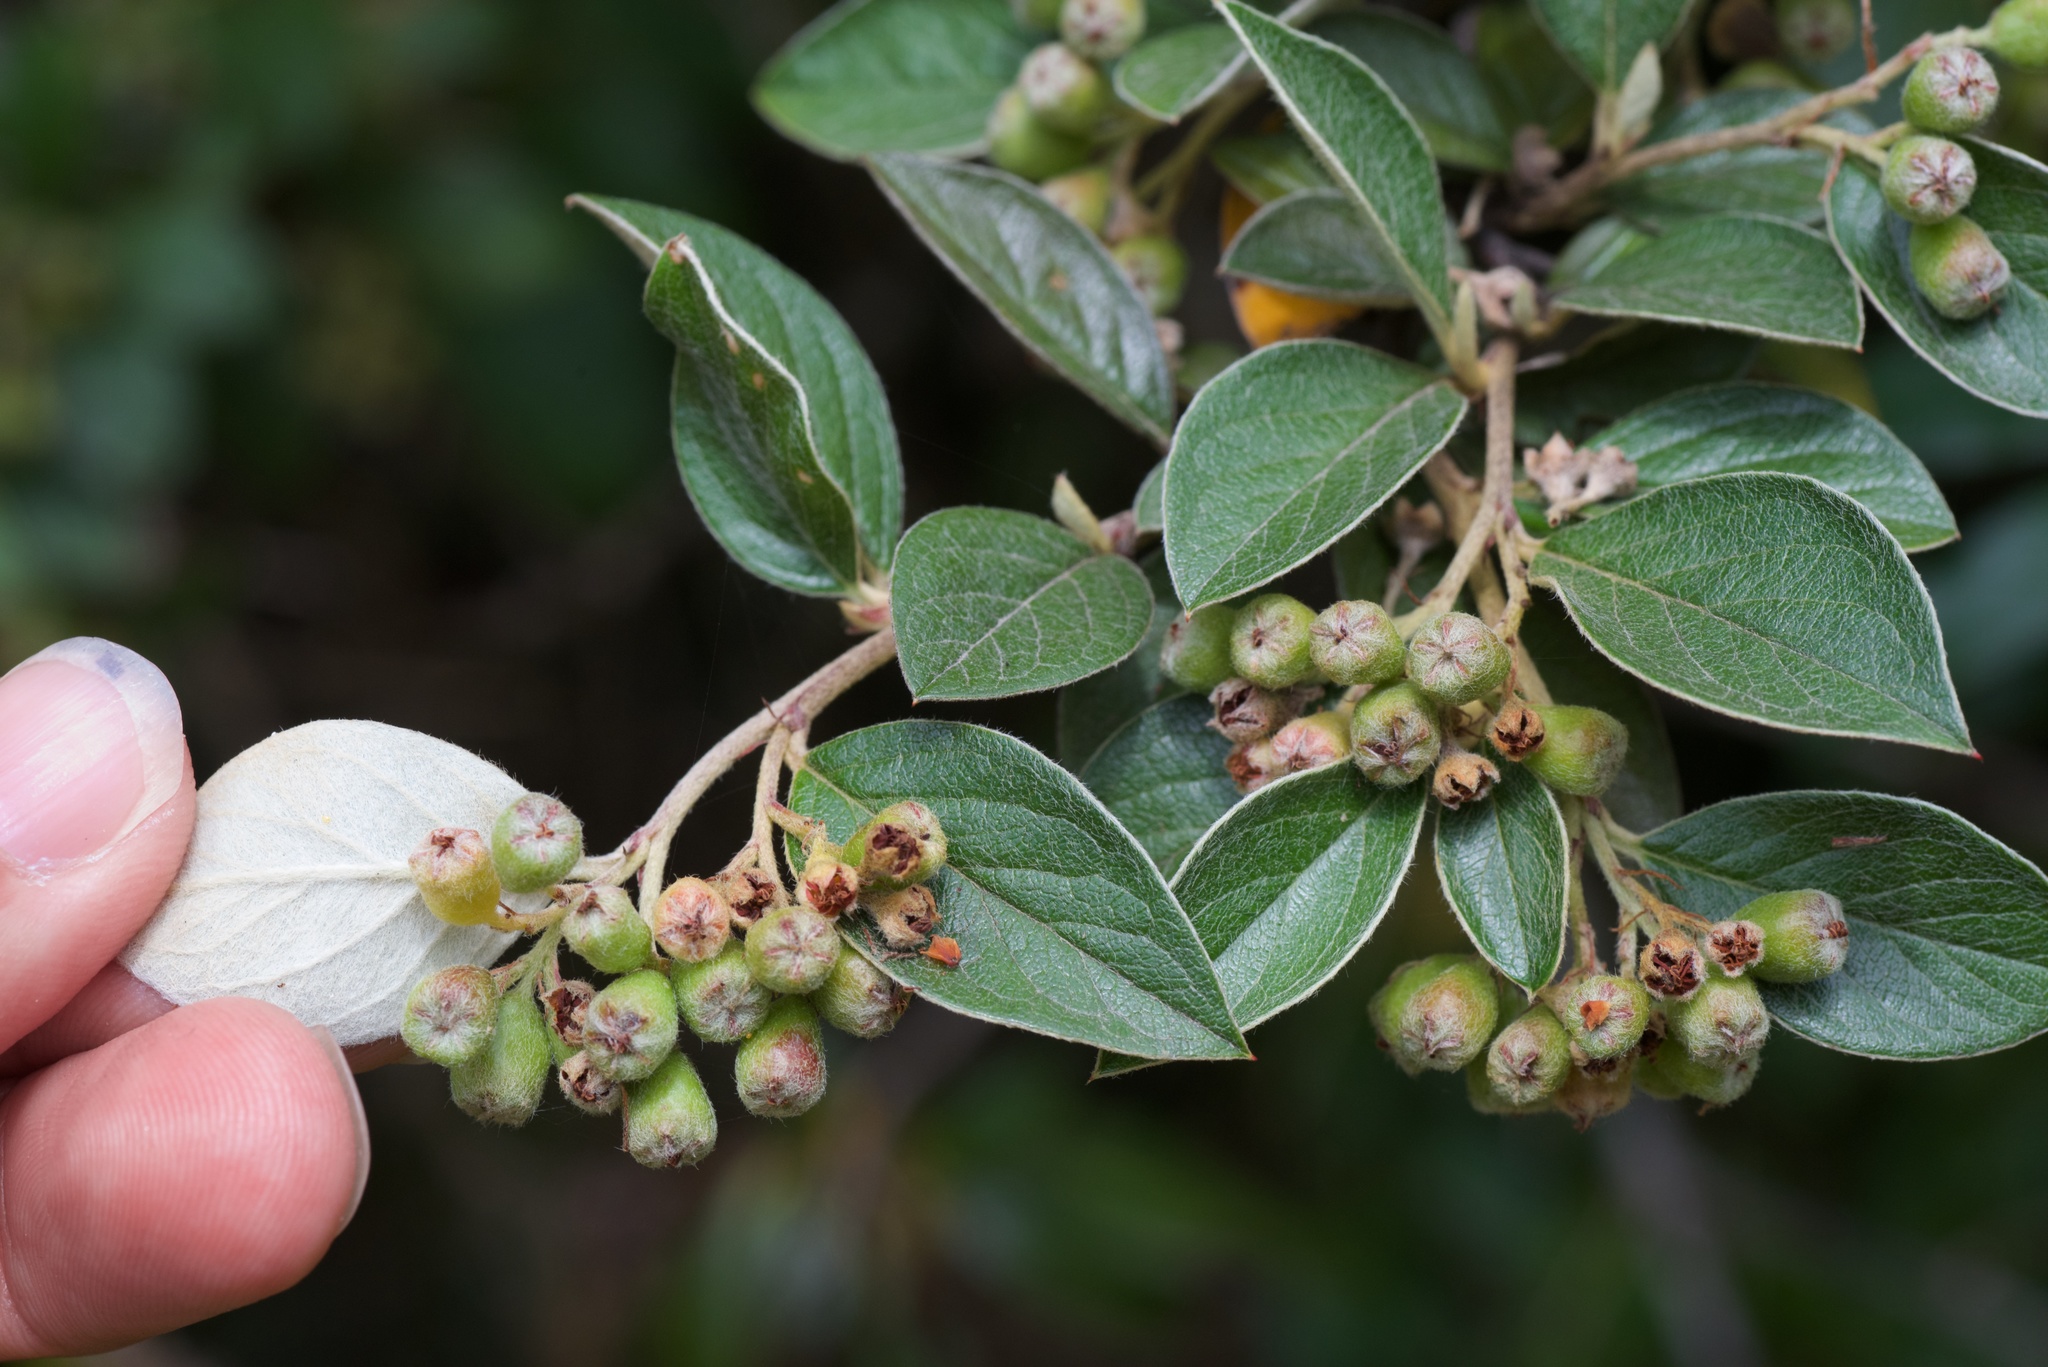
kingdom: Plantae
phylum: Tracheophyta
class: Magnoliopsida
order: Rosales
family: Rosaceae
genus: Cotoneaster
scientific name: Cotoneaster franchetii
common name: Franchet's cotoneaster
